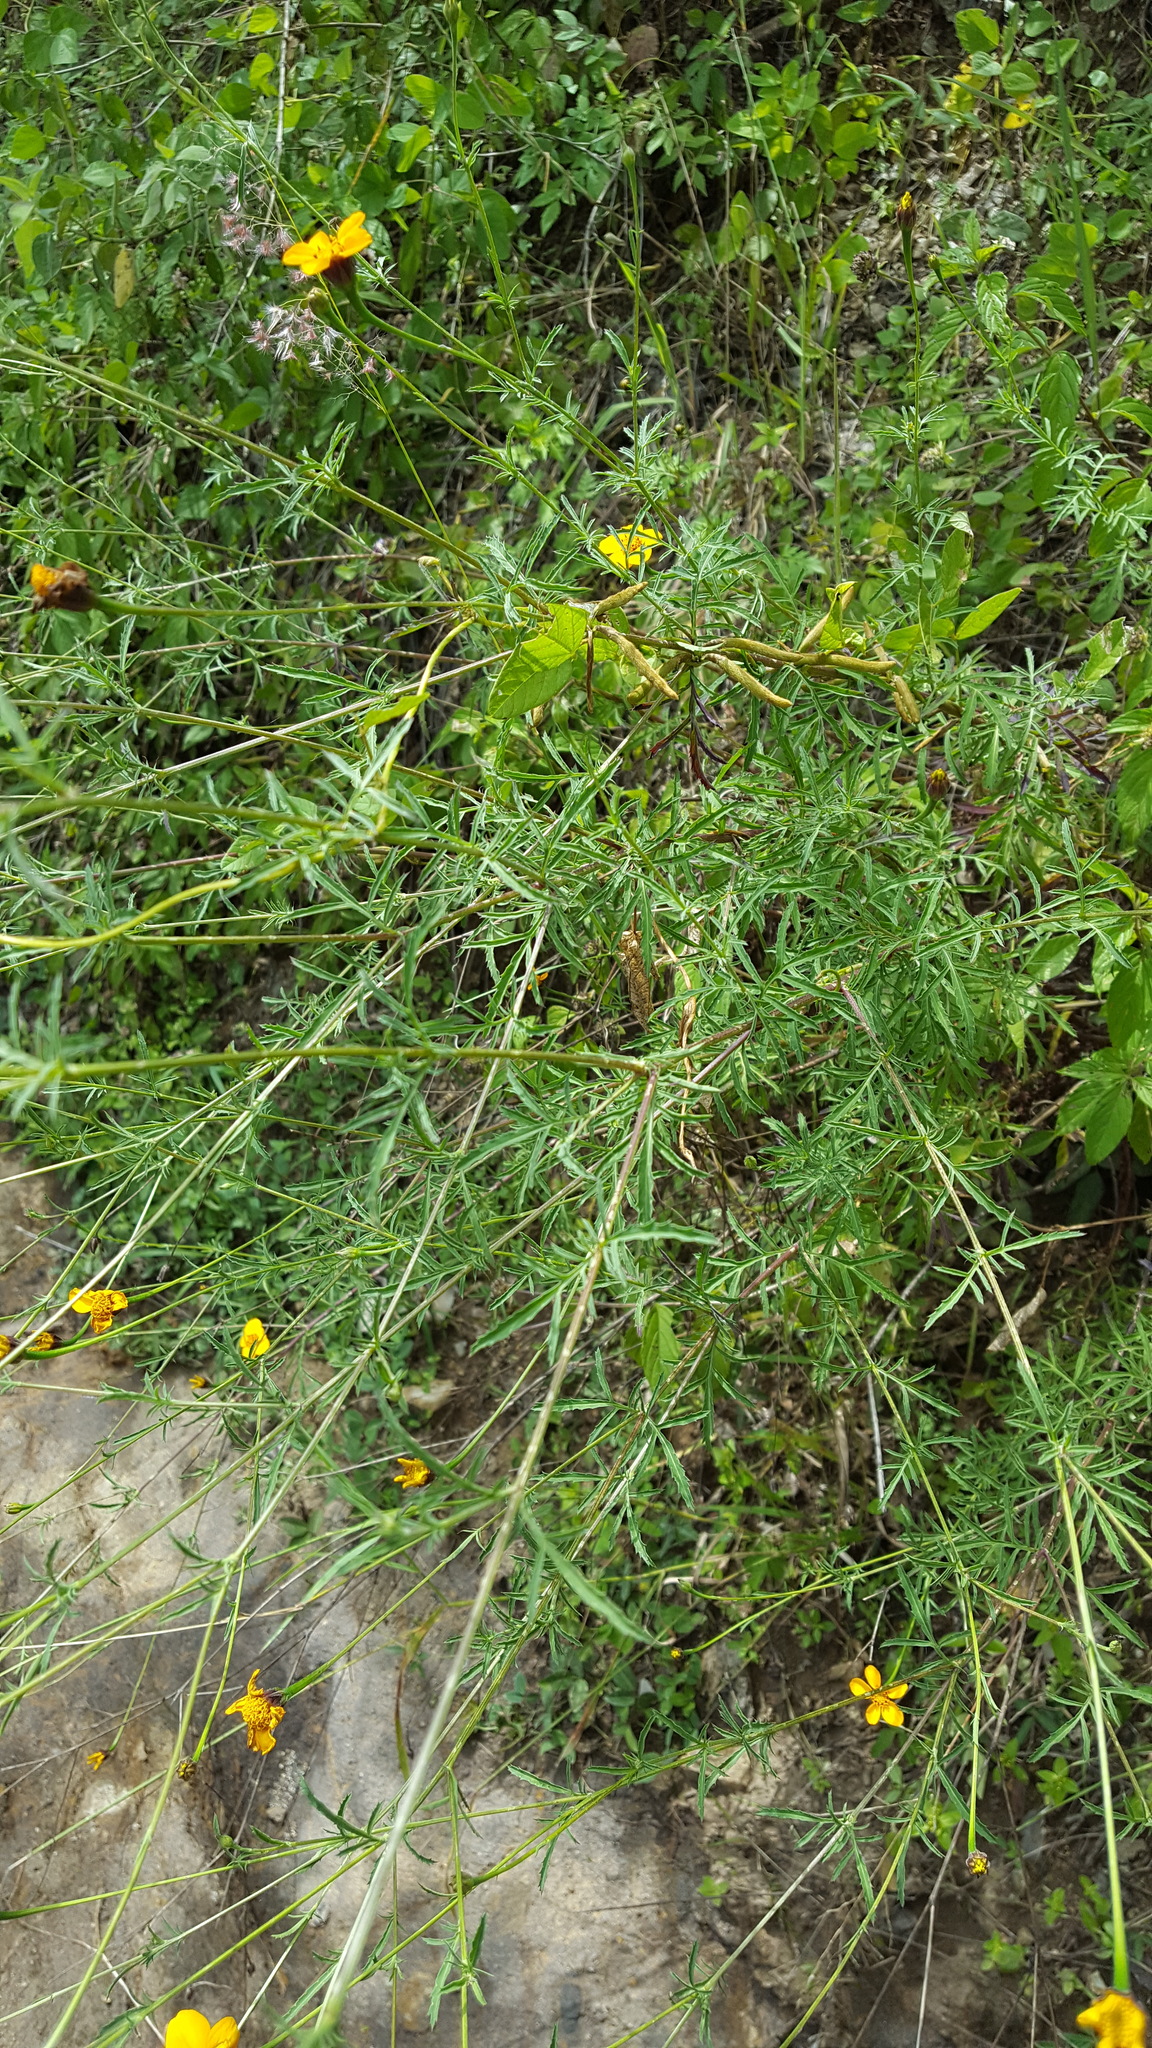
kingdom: Plantae
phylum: Tracheophyta
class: Magnoliopsida
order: Asterales
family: Asteraceae
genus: Dyssodia
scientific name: Dyssodia tagetiflora
